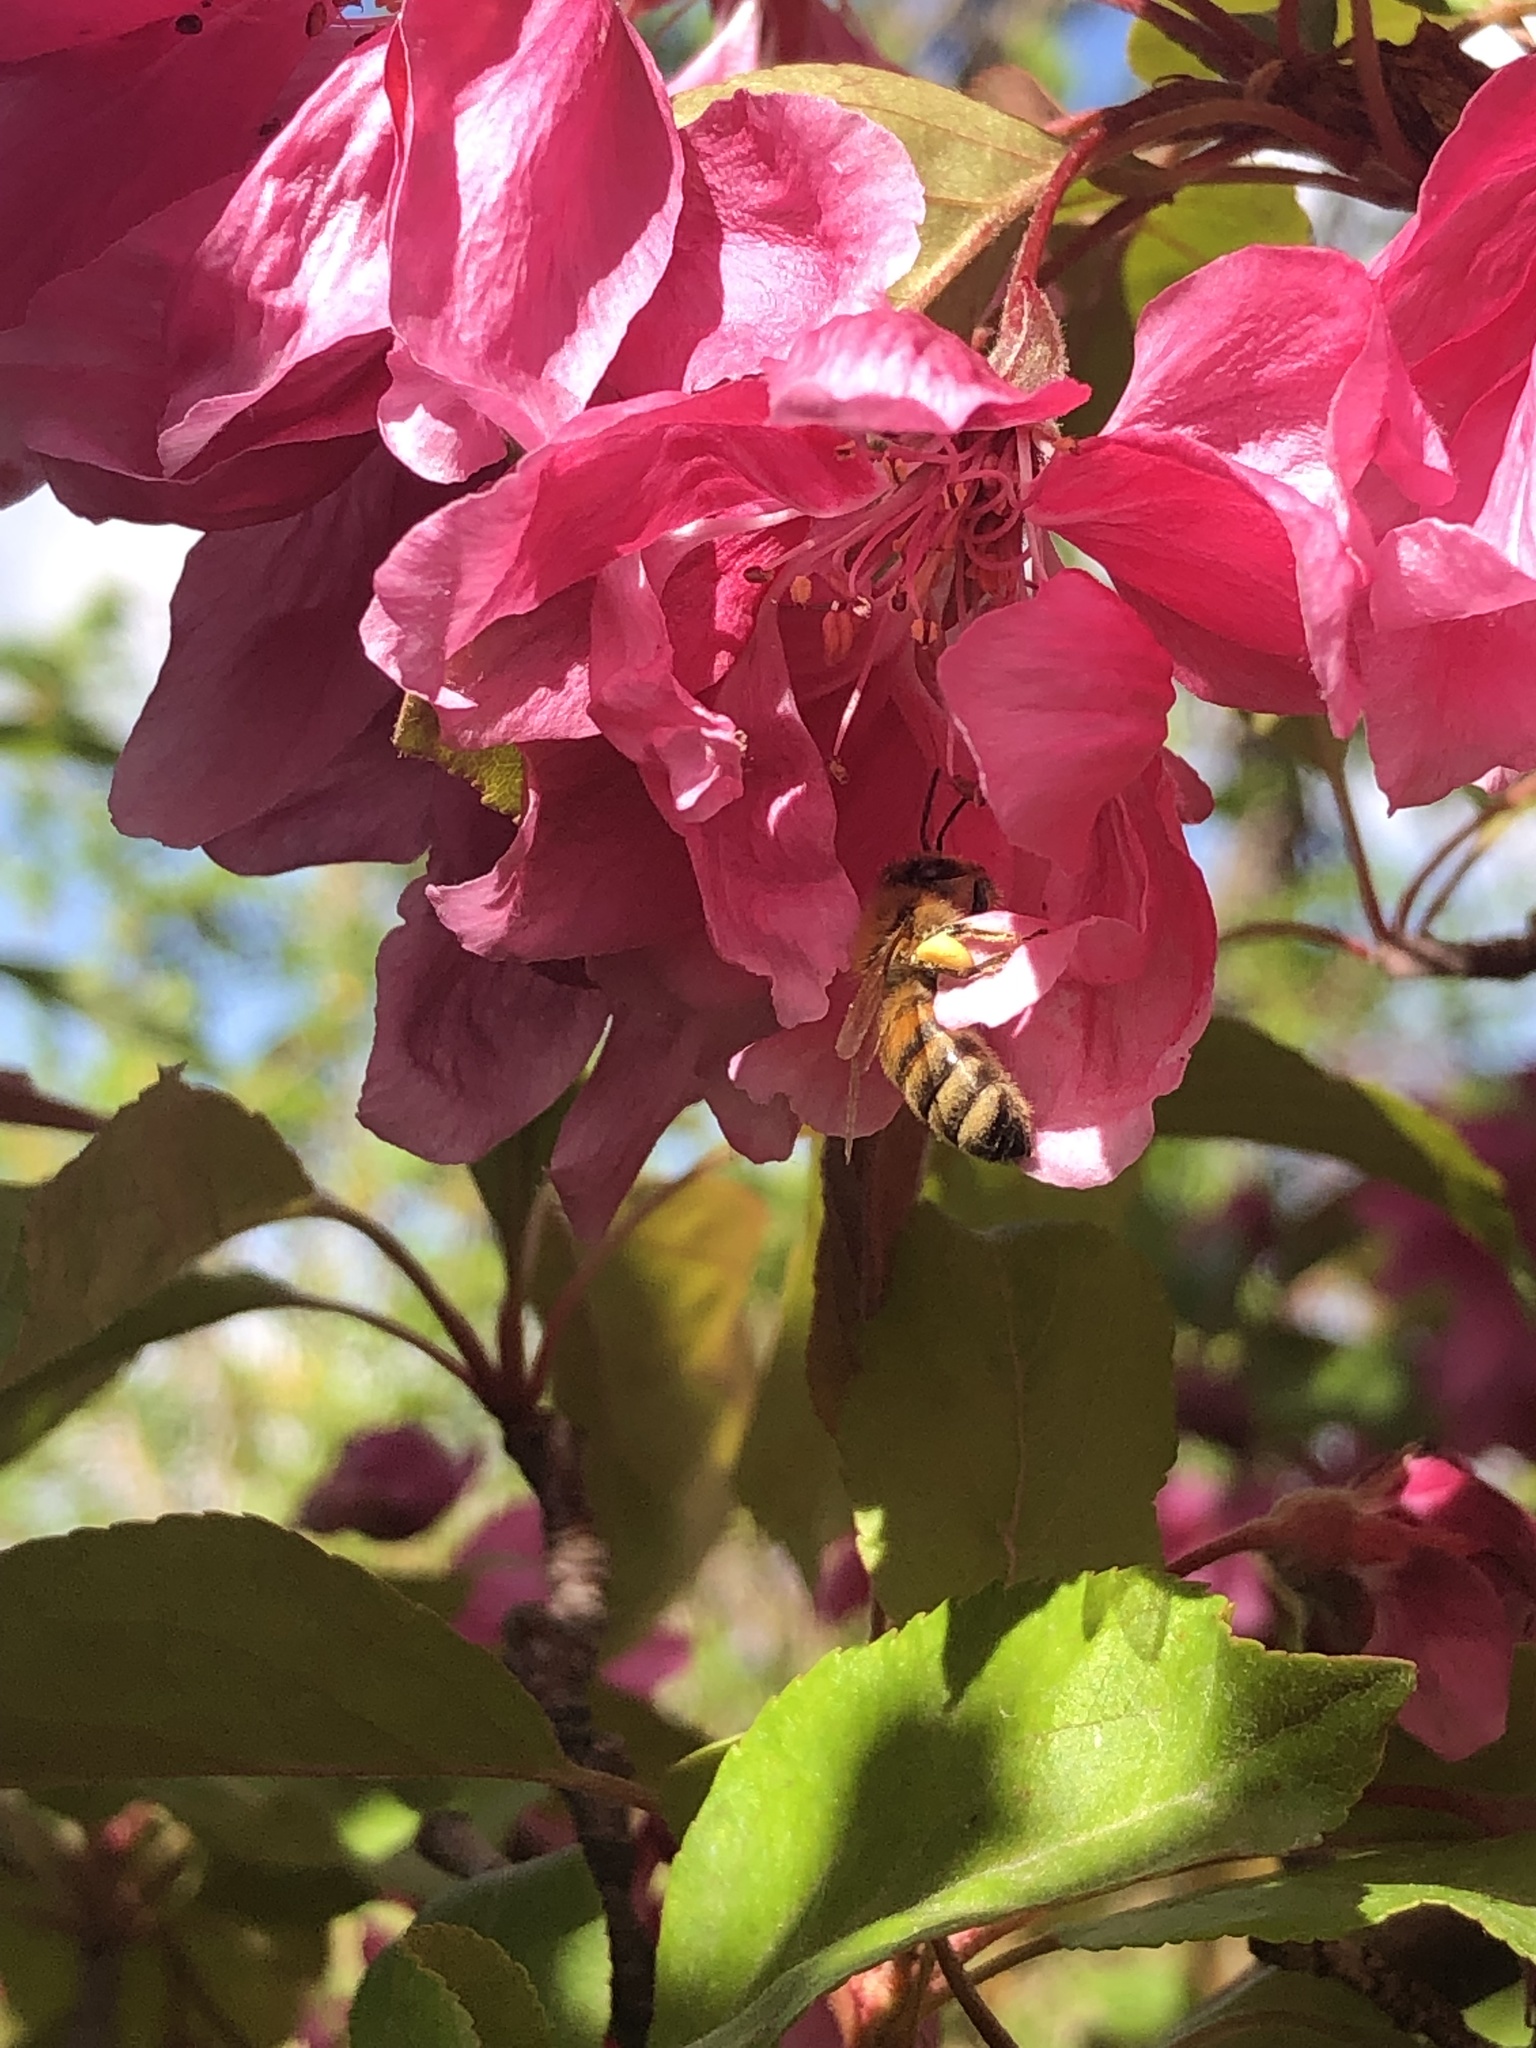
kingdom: Animalia
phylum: Arthropoda
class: Insecta
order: Hymenoptera
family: Apidae
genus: Apis
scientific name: Apis mellifera
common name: Honey bee
